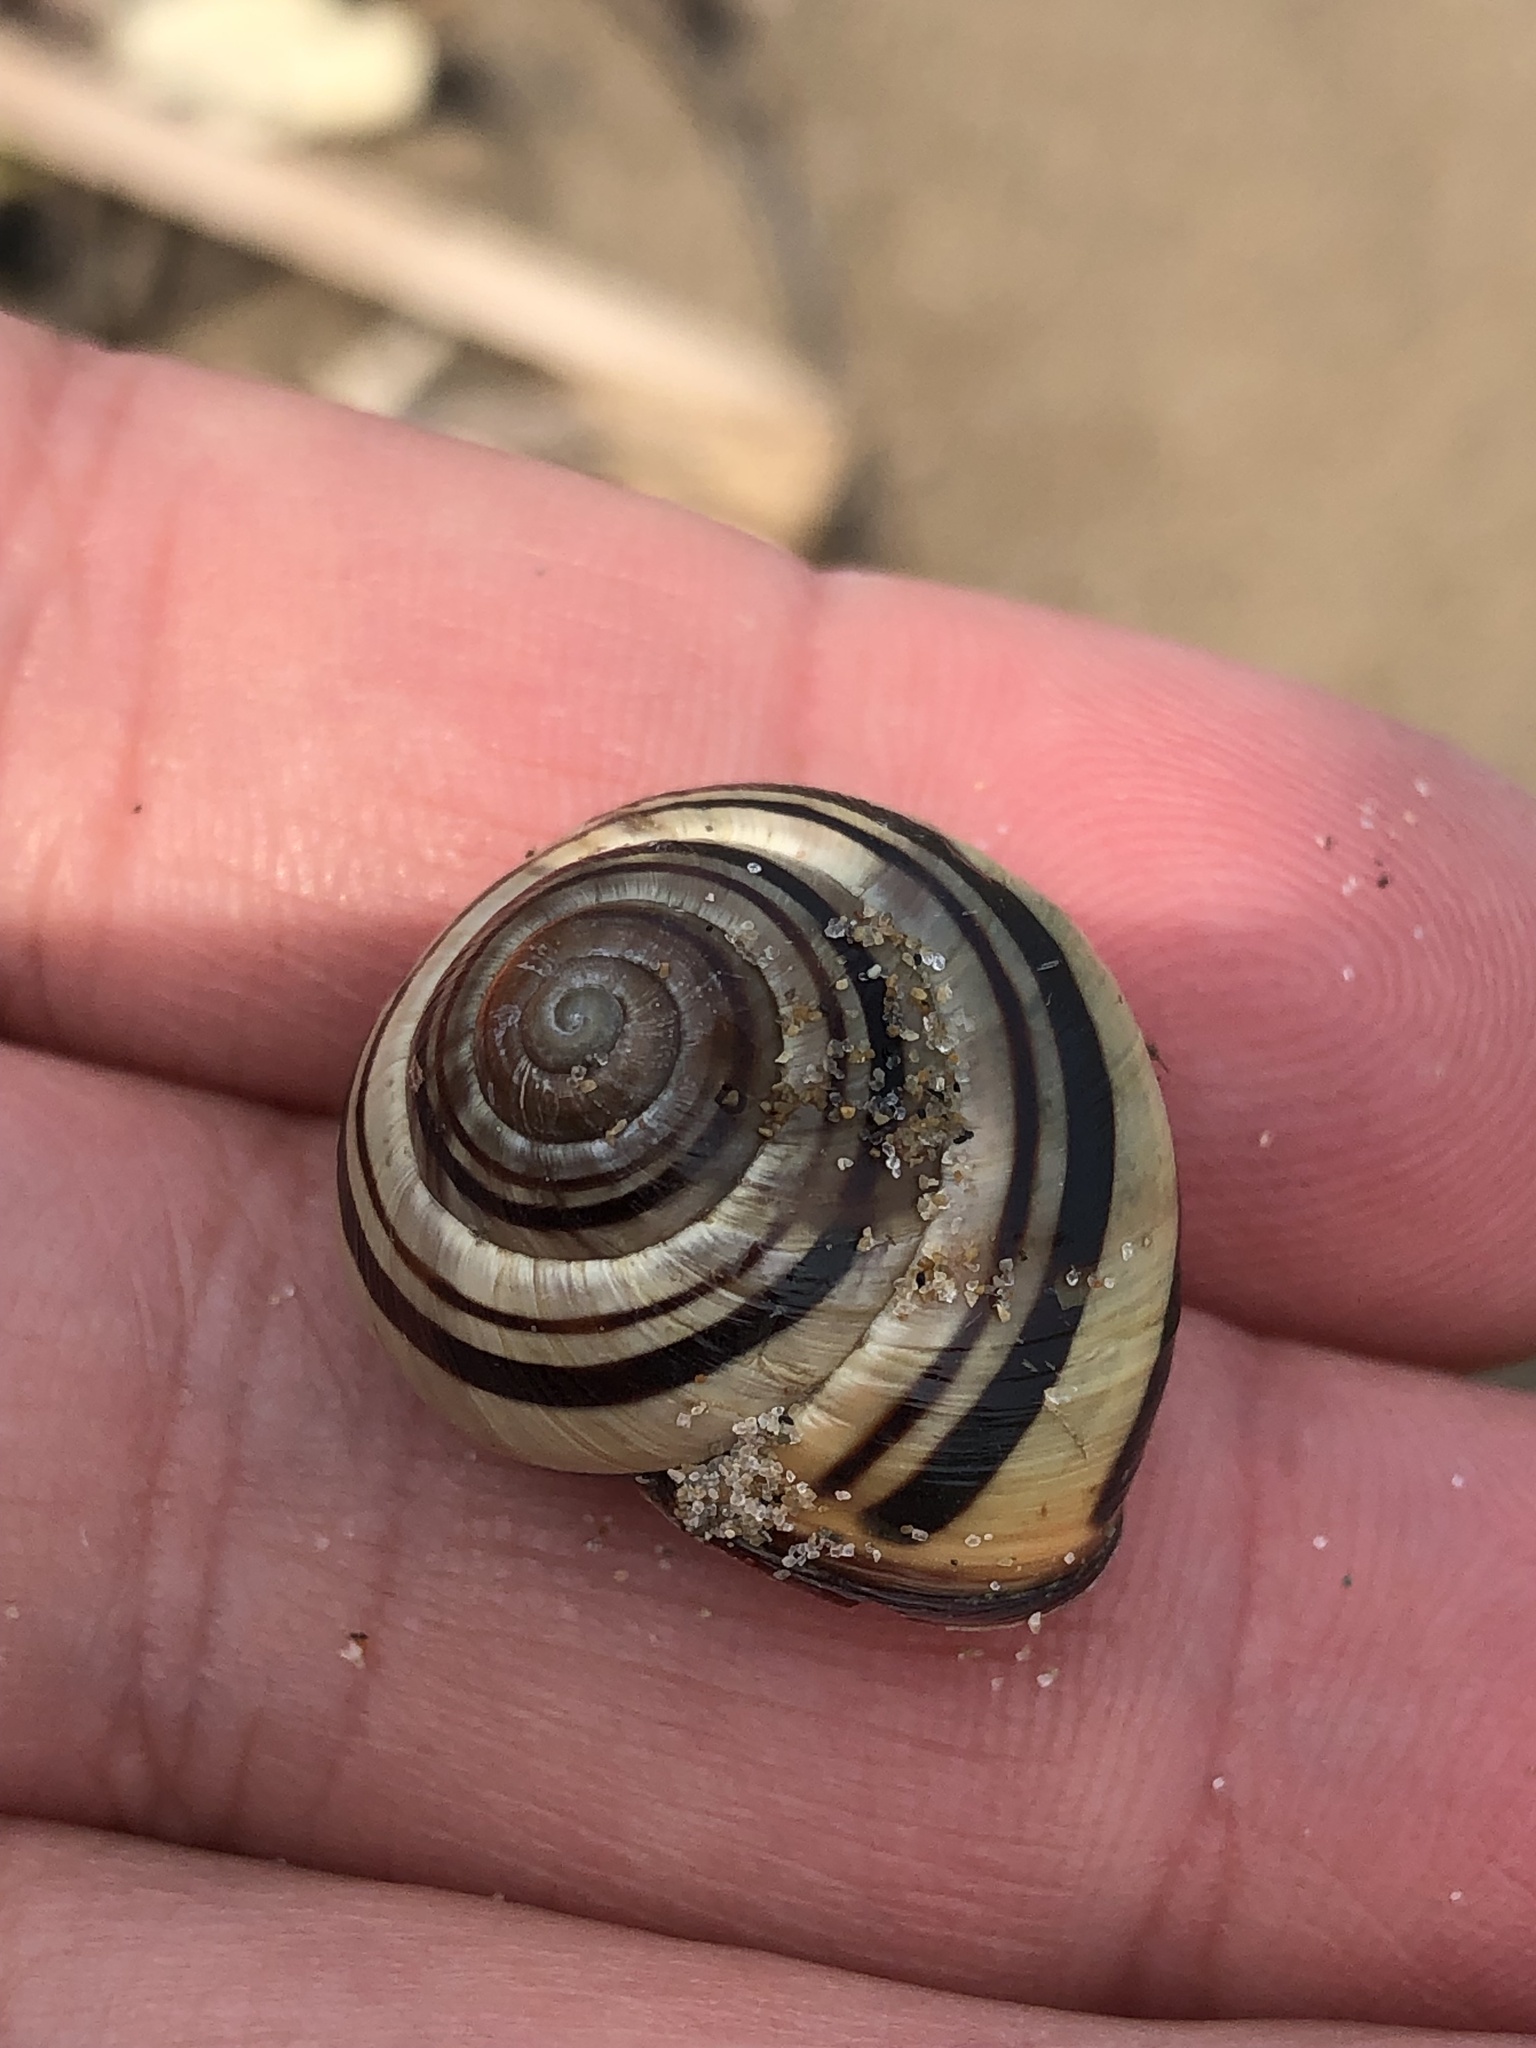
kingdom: Animalia
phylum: Mollusca
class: Gastropoda
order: Stylommatophora
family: Helicidae
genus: Cepaea
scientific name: Cepaea nemoralis
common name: Grovesnail
